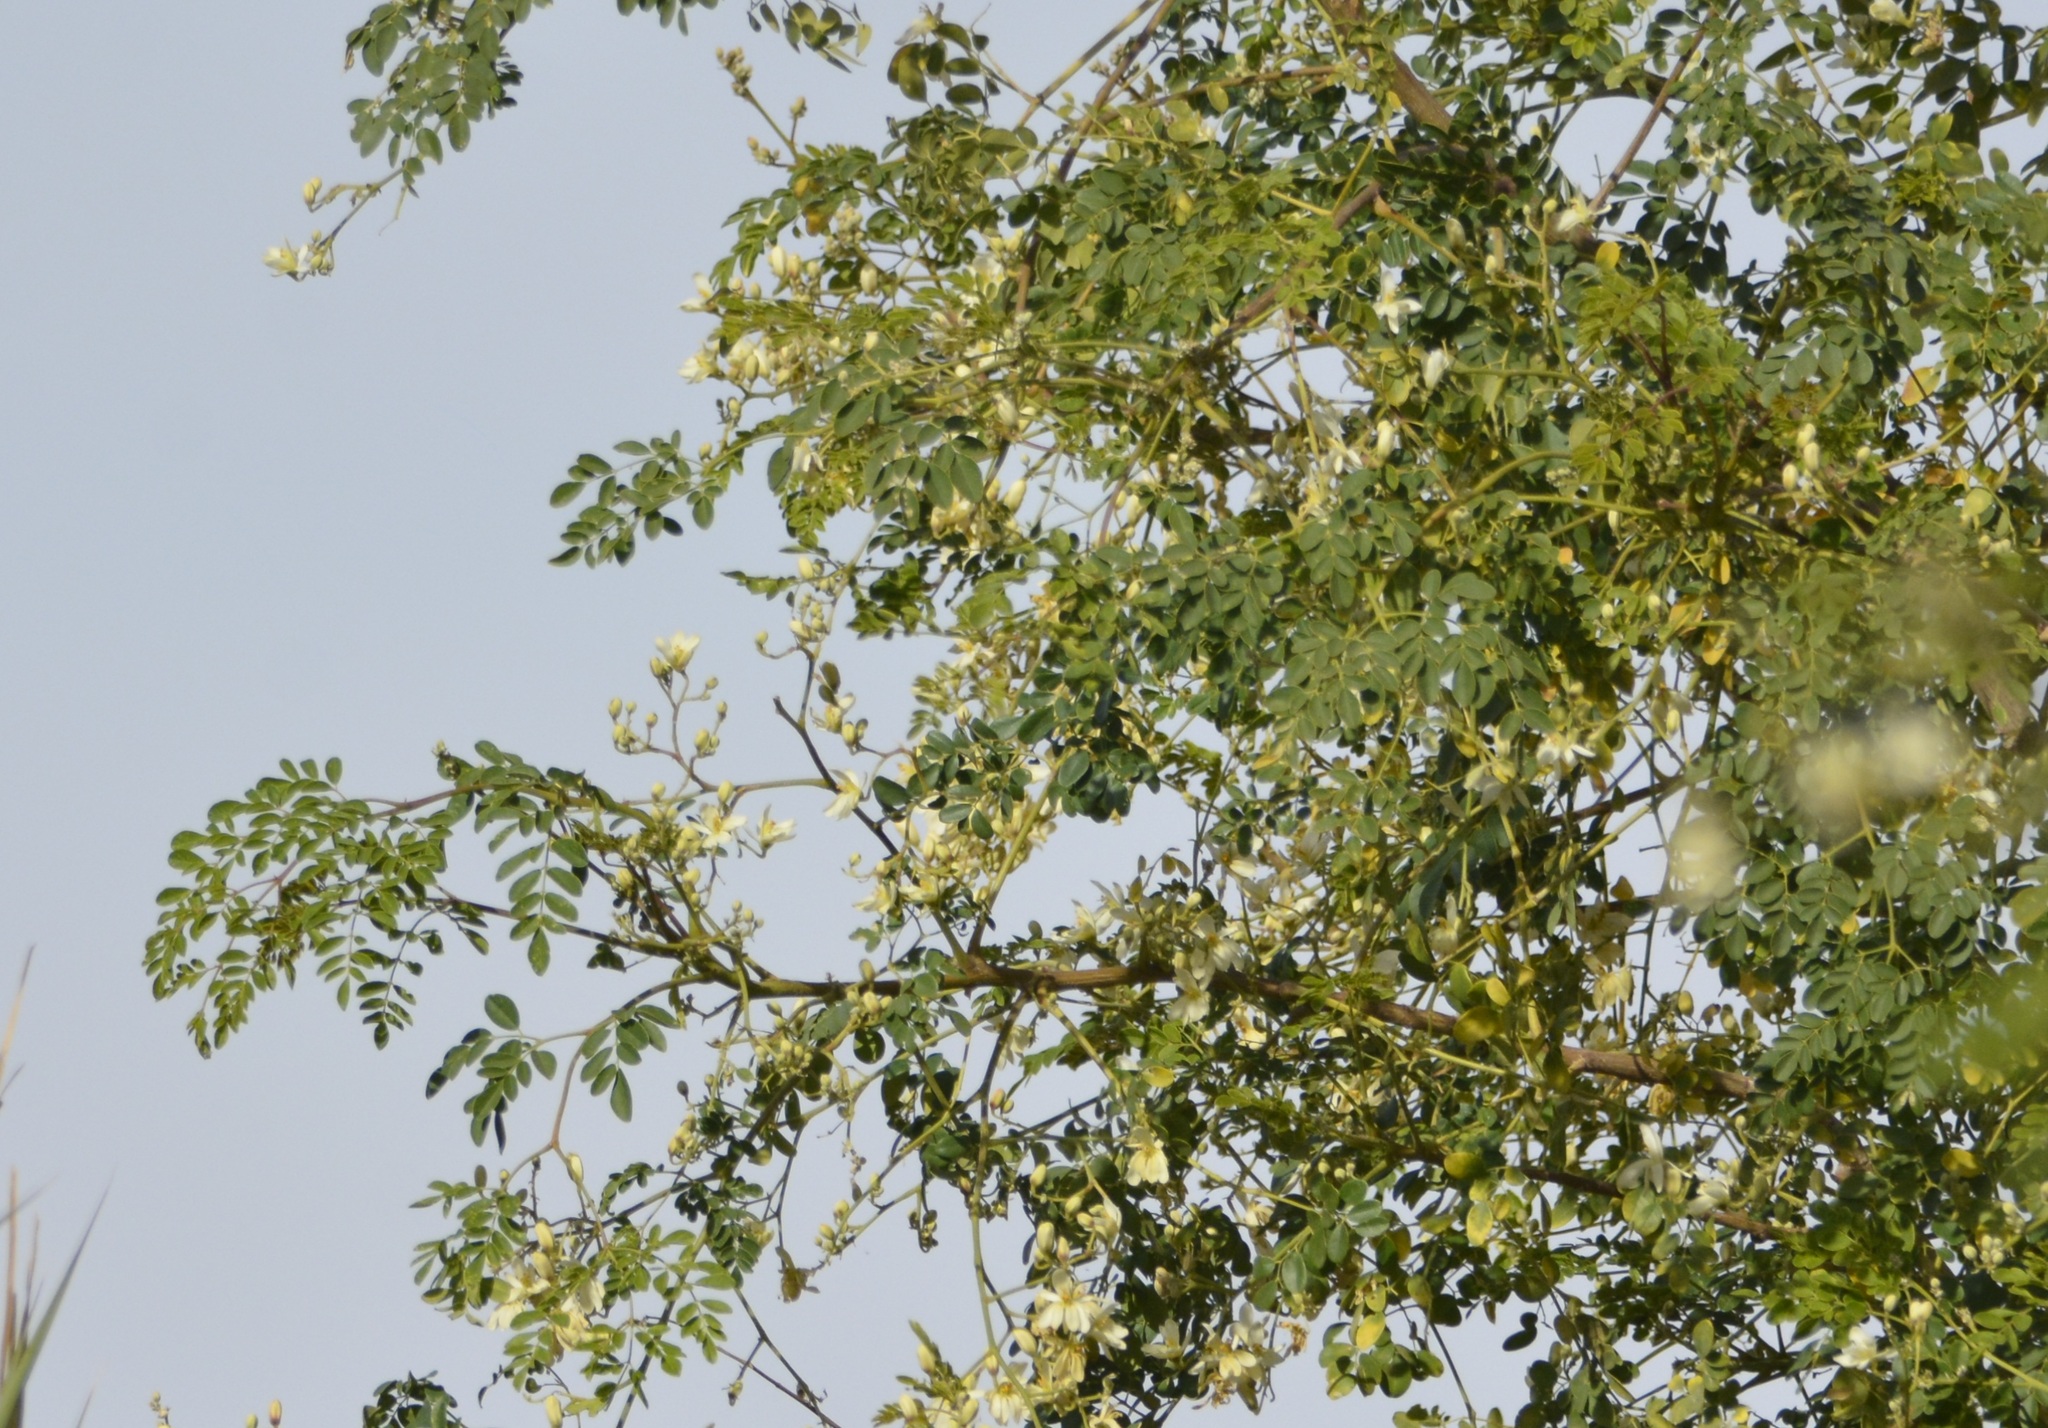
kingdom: Plantae
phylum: Tracheophyta
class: Magnoliopsida
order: Brassicales
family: Moringaceae
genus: Moringa
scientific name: Moringa oleifera
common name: Horseradish-tree
